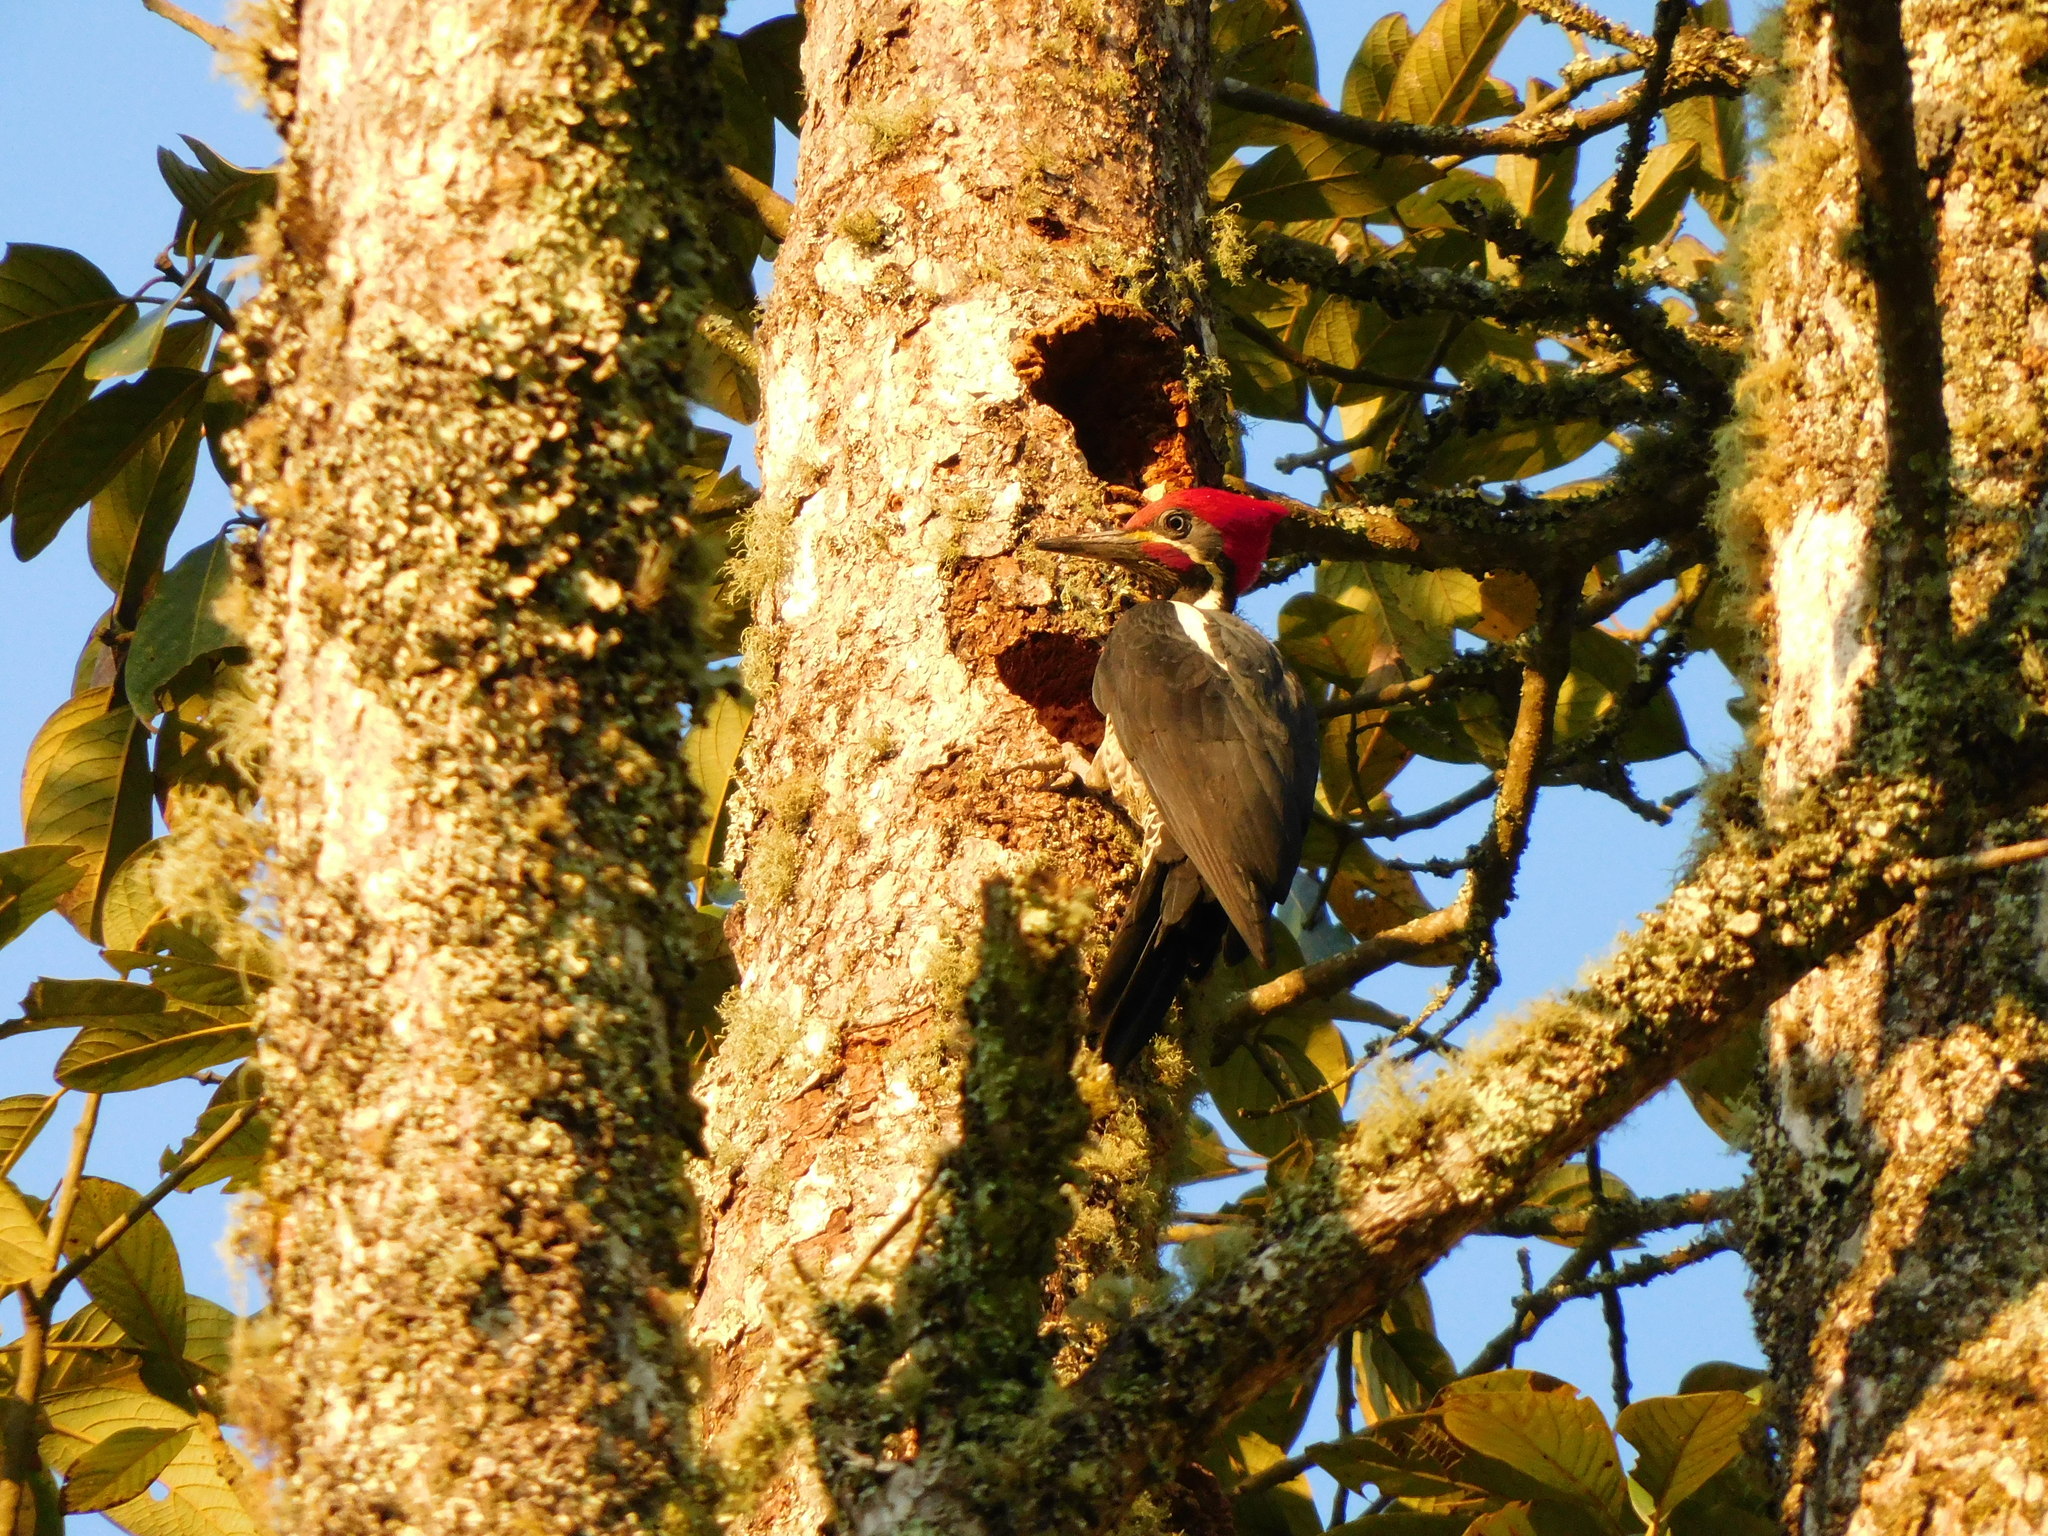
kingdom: Animalia
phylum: Chordata
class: Aves
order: Piciformes
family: Picidae
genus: Dryocopus
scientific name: Dryocopus lineatus
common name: Lineated woodpecker
